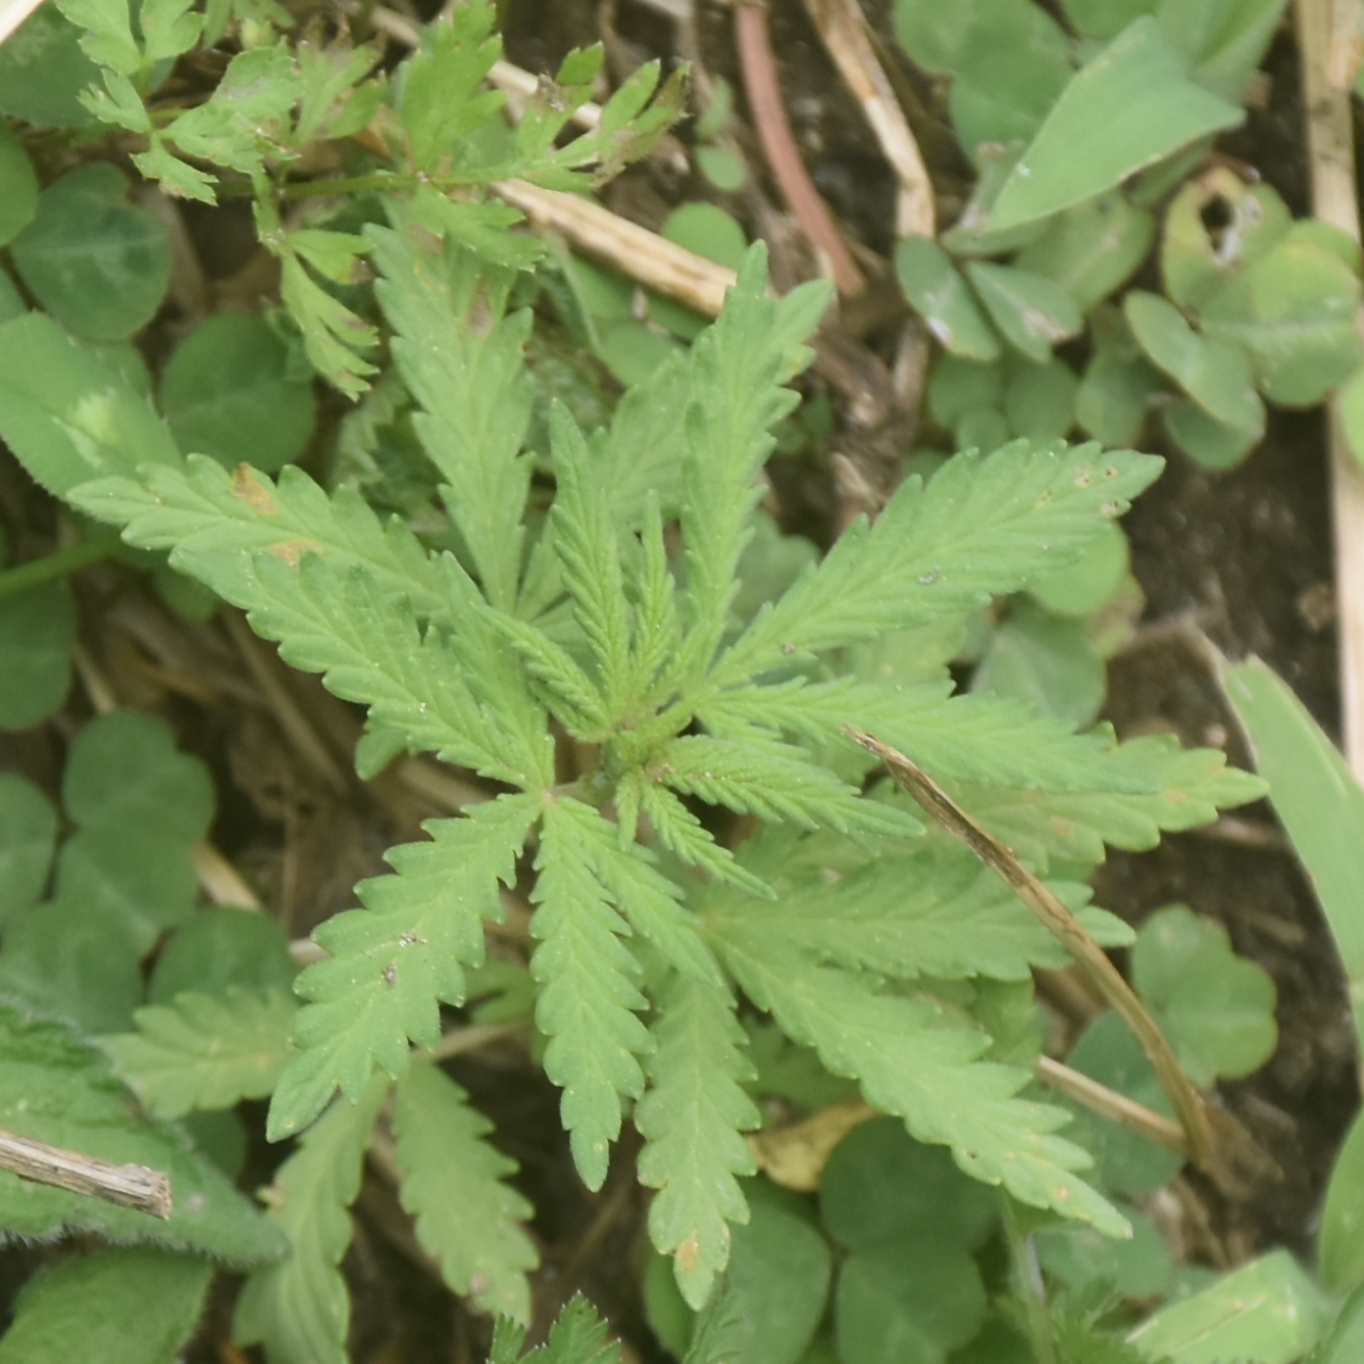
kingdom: Plantae
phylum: Tracheophyta
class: Magnoliopsida
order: Rosales
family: Cannabaceae
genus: Cannabis
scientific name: Cannabis sativa
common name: Hemp
